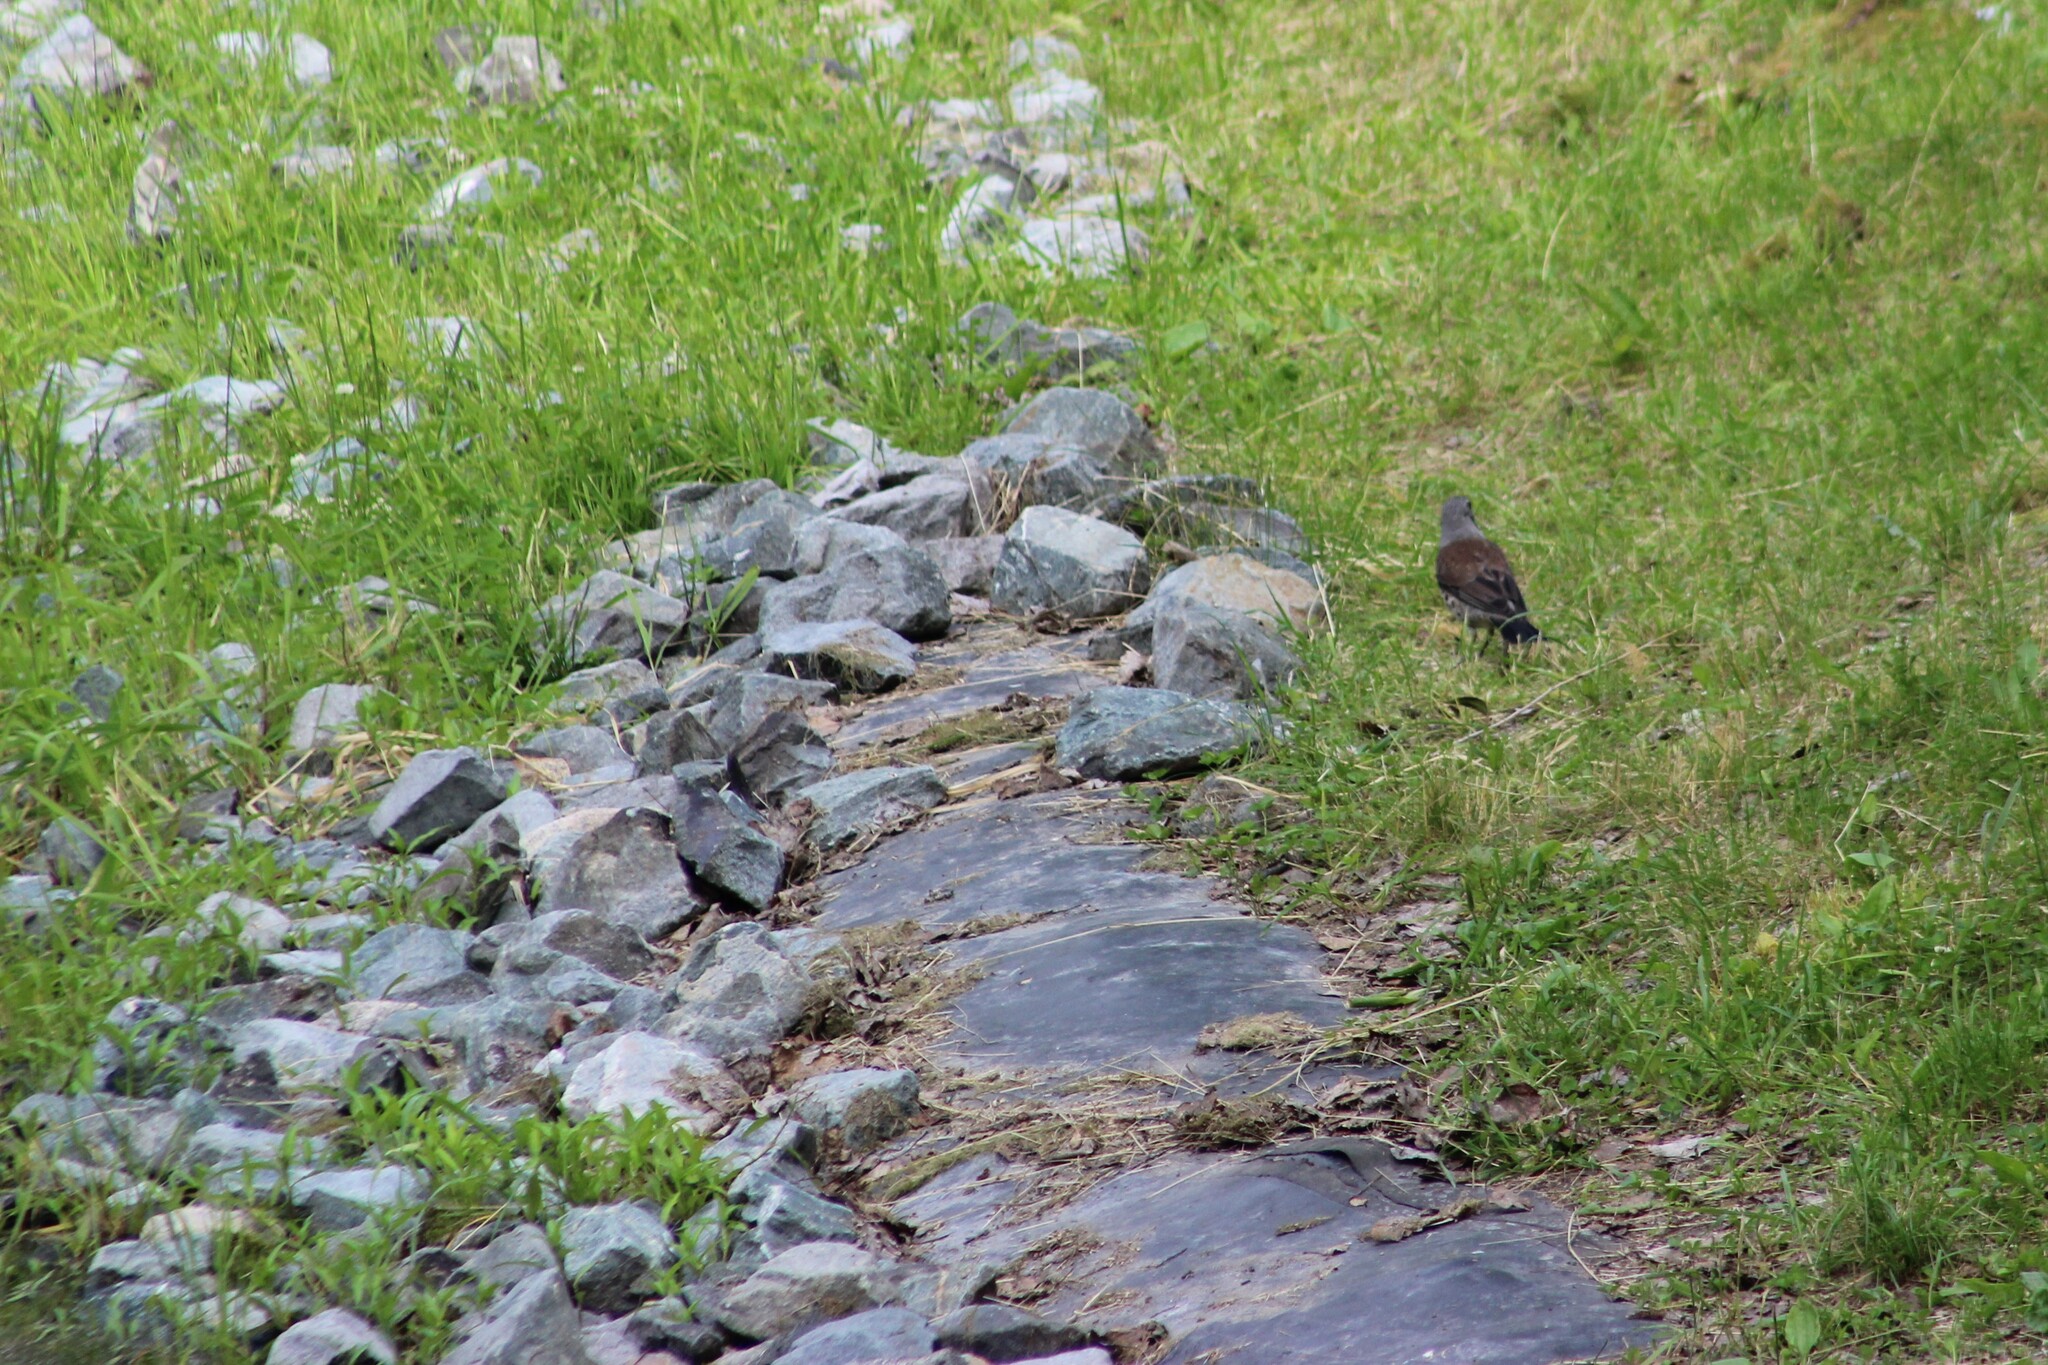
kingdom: Animalia
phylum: Chordata
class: Aves
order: Passeriformes
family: Turdidae
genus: Turdus
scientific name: Turdus pilaris
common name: Fieldfare
